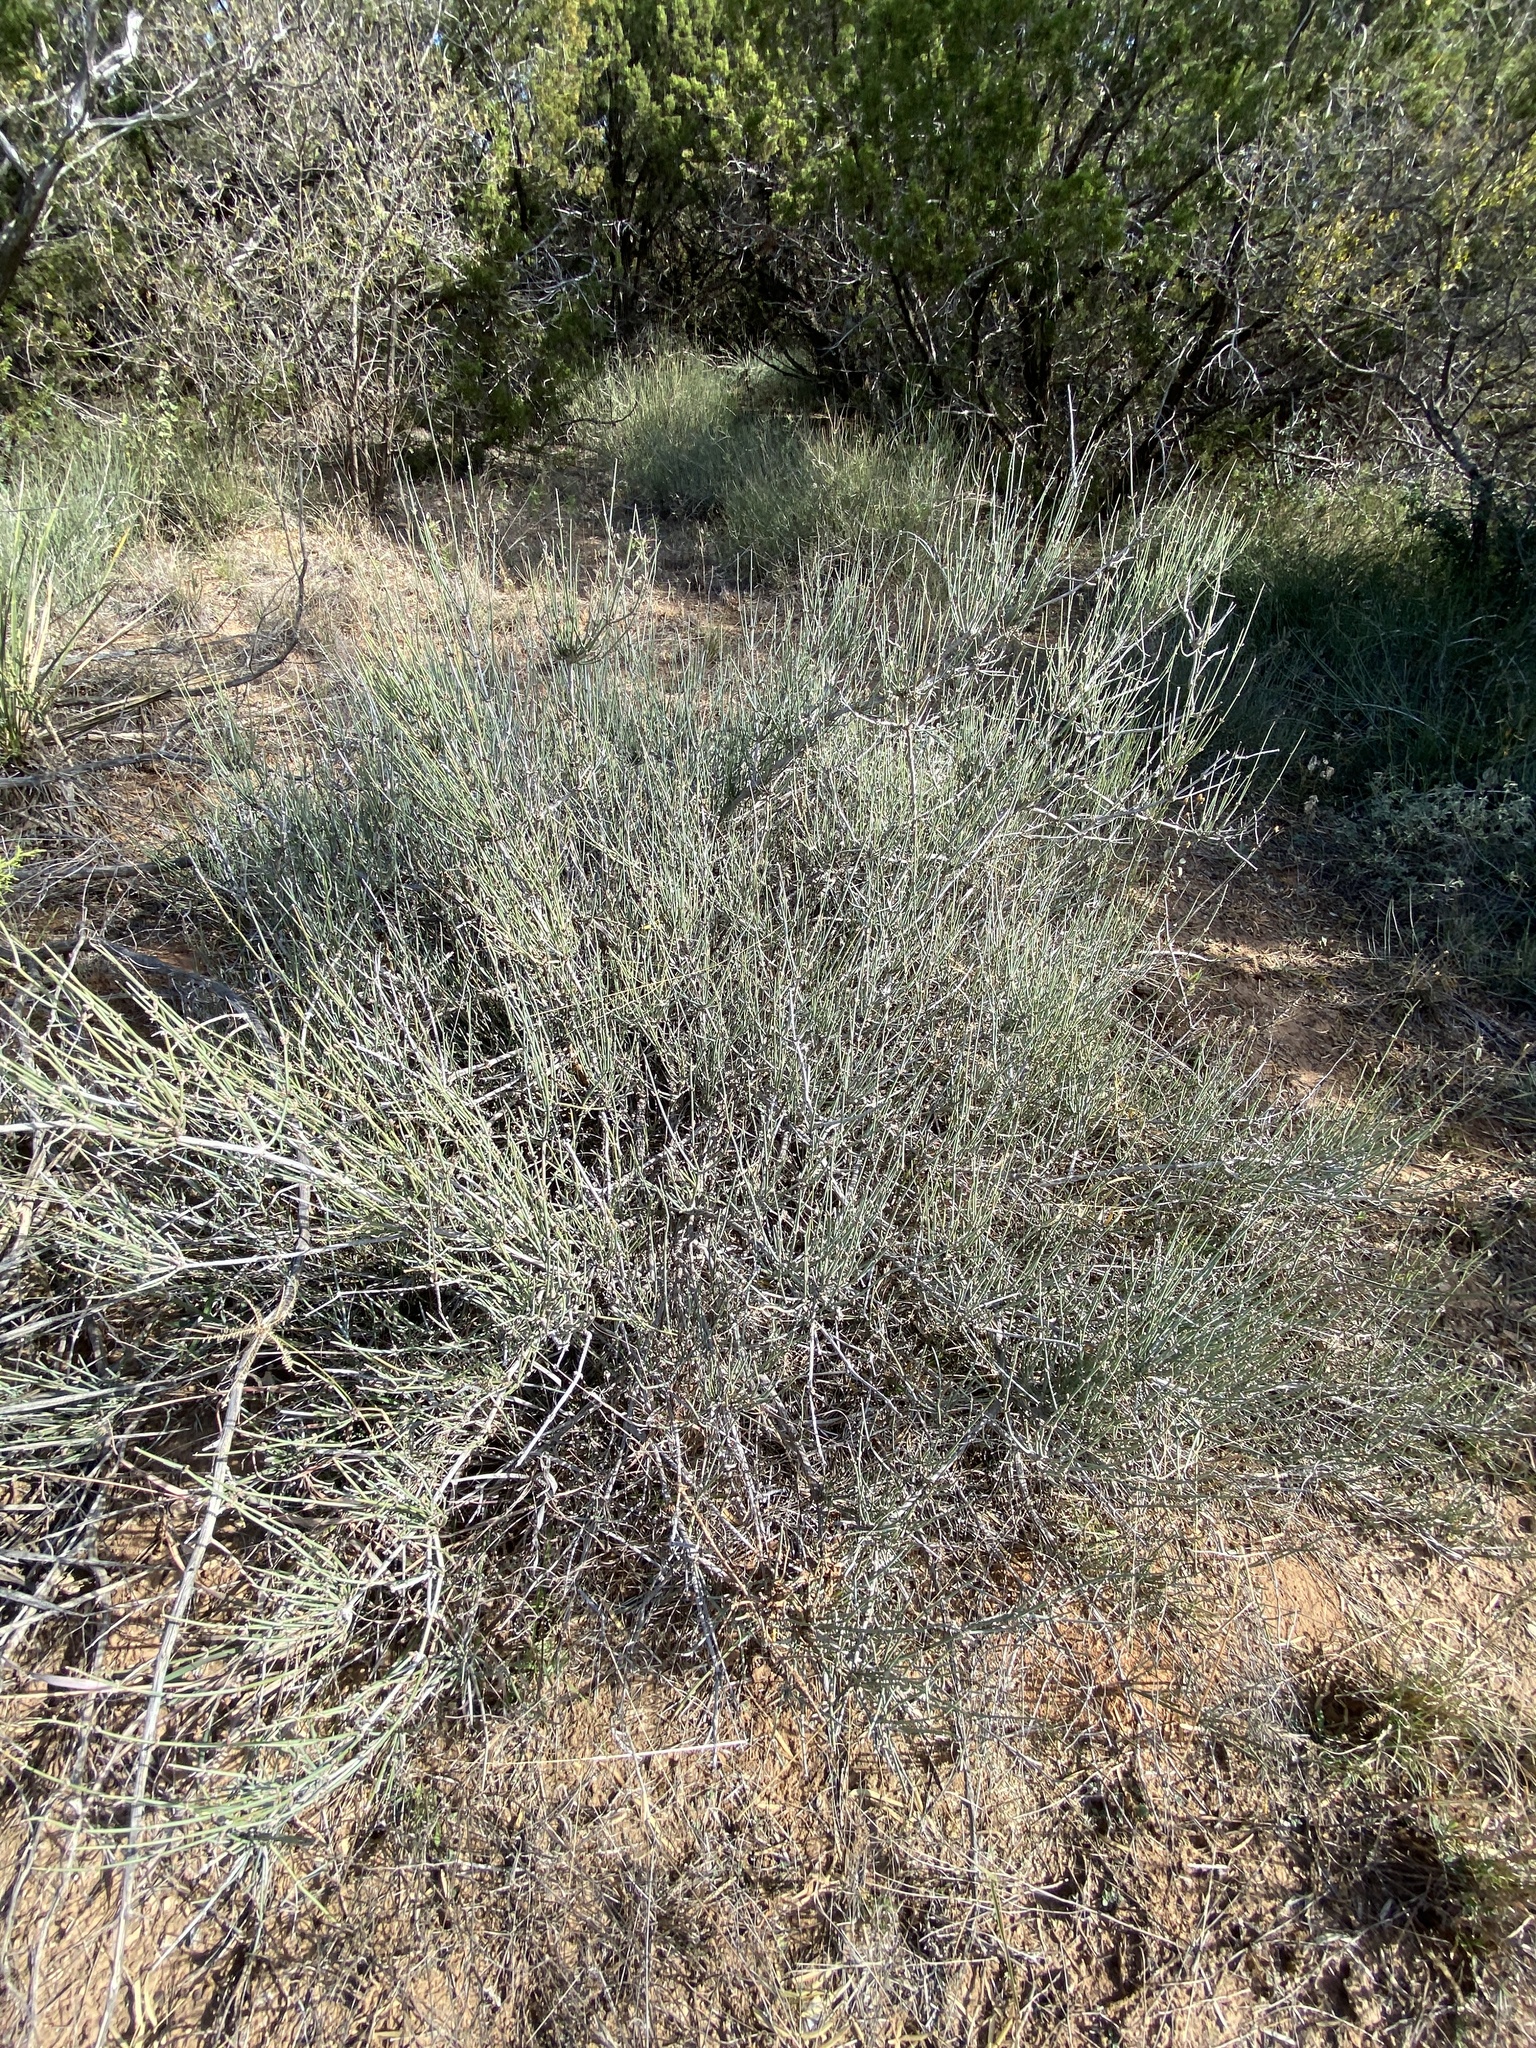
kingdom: Plantae
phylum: Tracheophyta
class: Gnetopsida
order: Ephedrales
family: Ephedraceae
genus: Ephedra
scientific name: Ephedra antisyphilitica
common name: Clipweed
